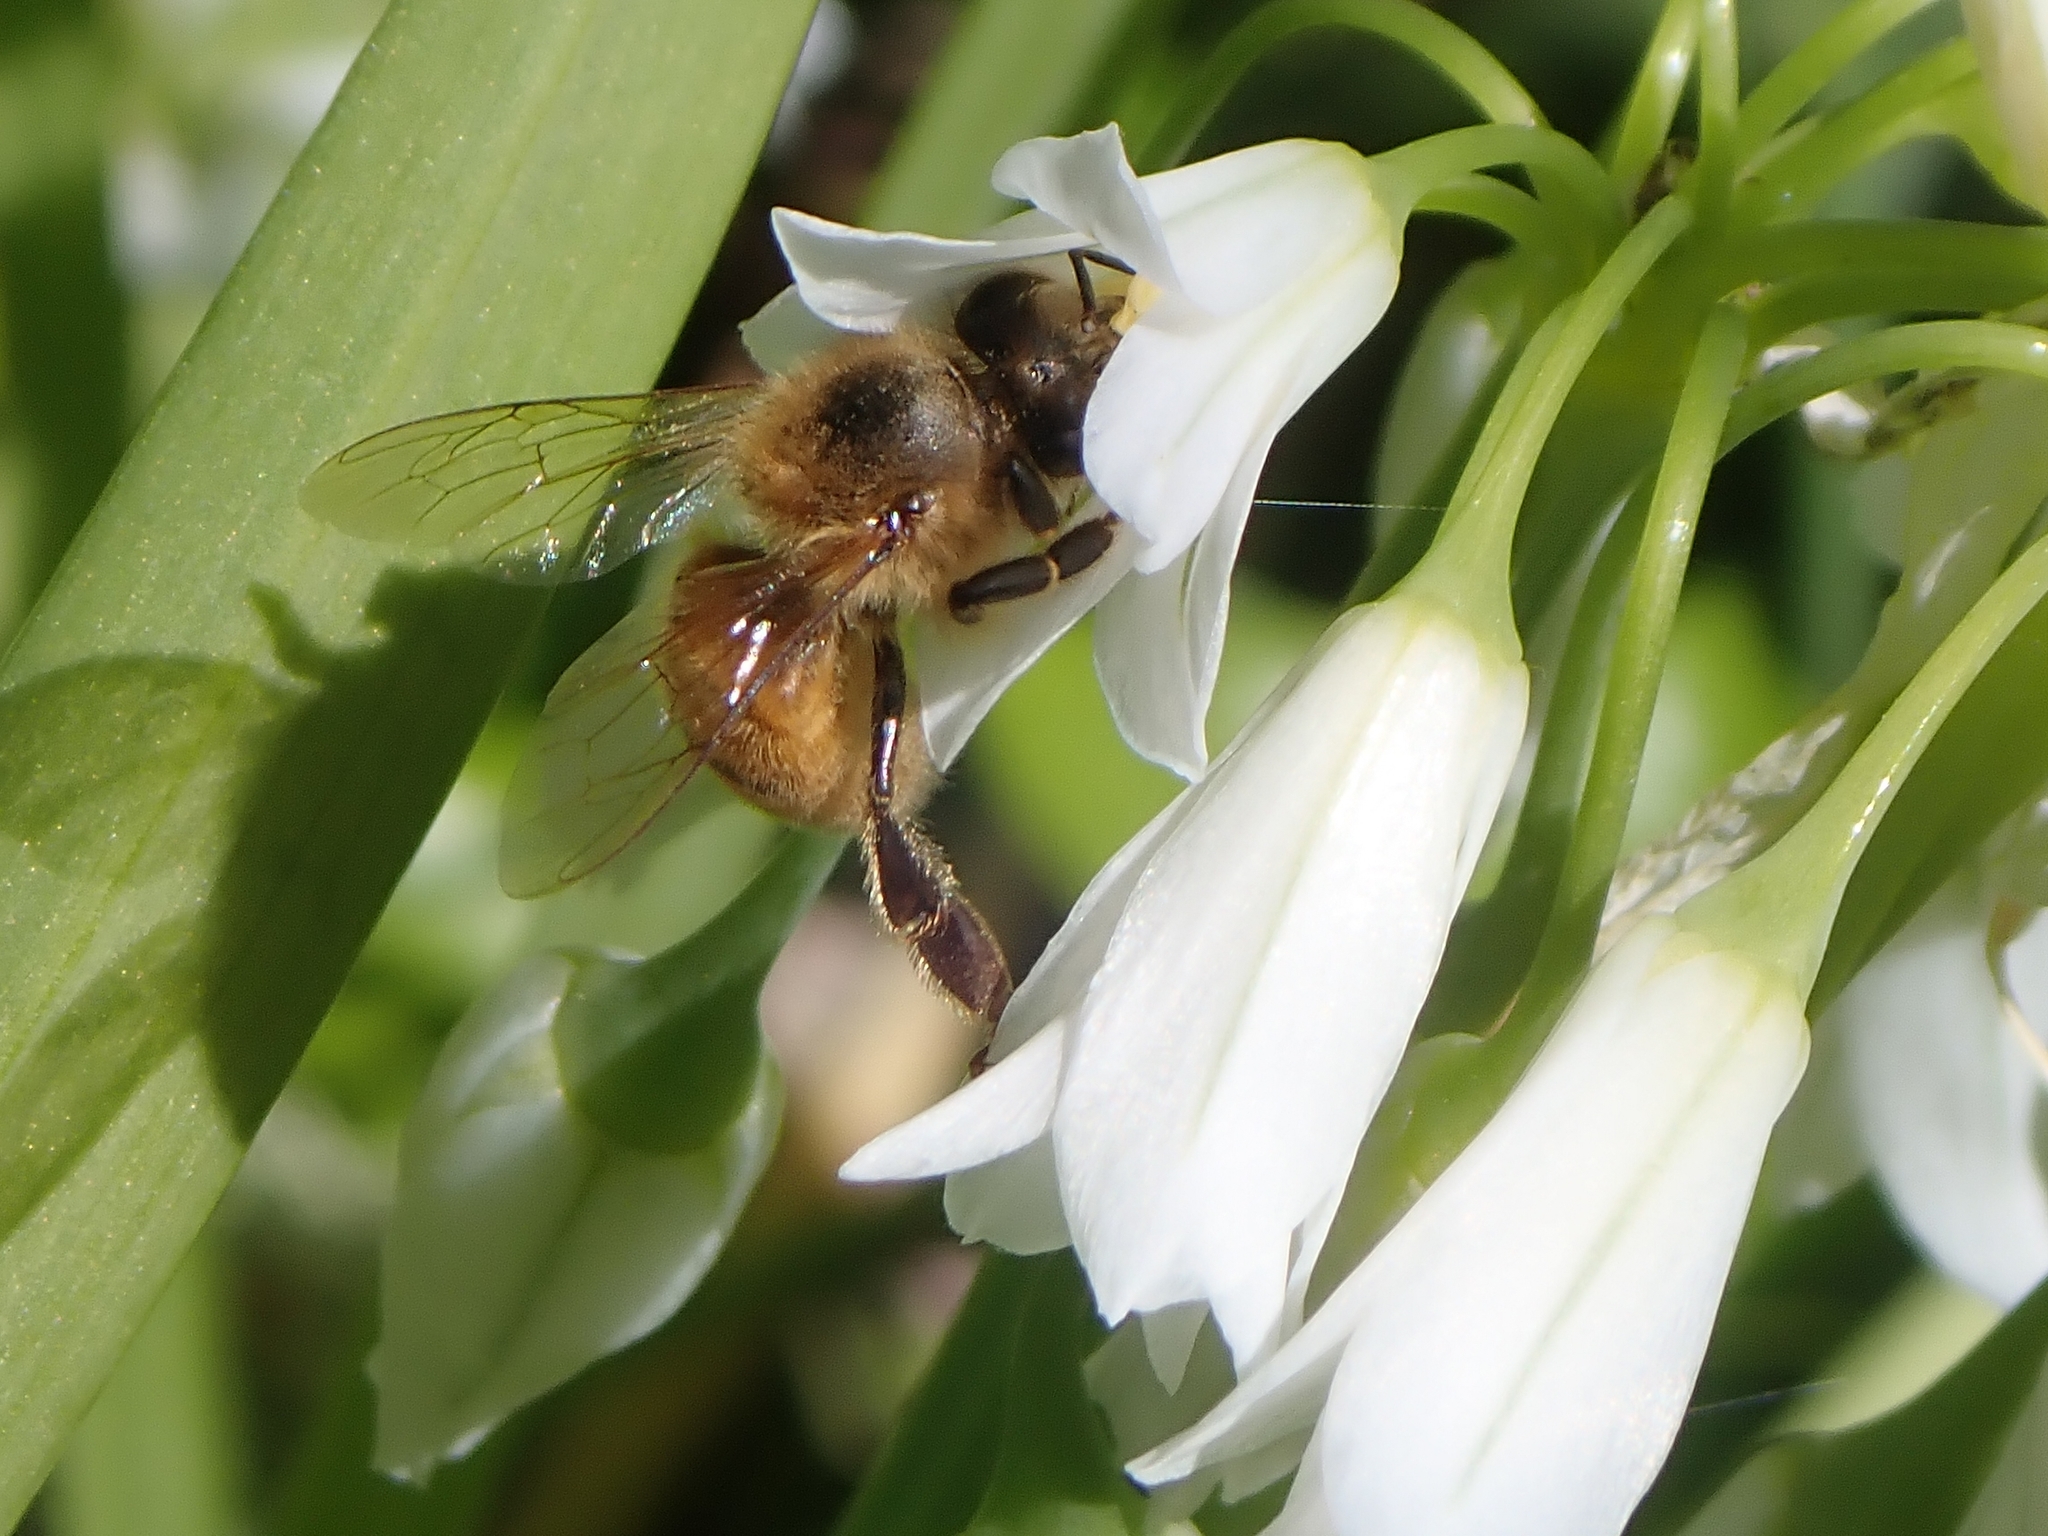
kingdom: Animalia
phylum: Arthropoda
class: Insecta
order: Hymenoptera
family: Apidae
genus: Apis
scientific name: Apis mellifera
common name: Honey bee
